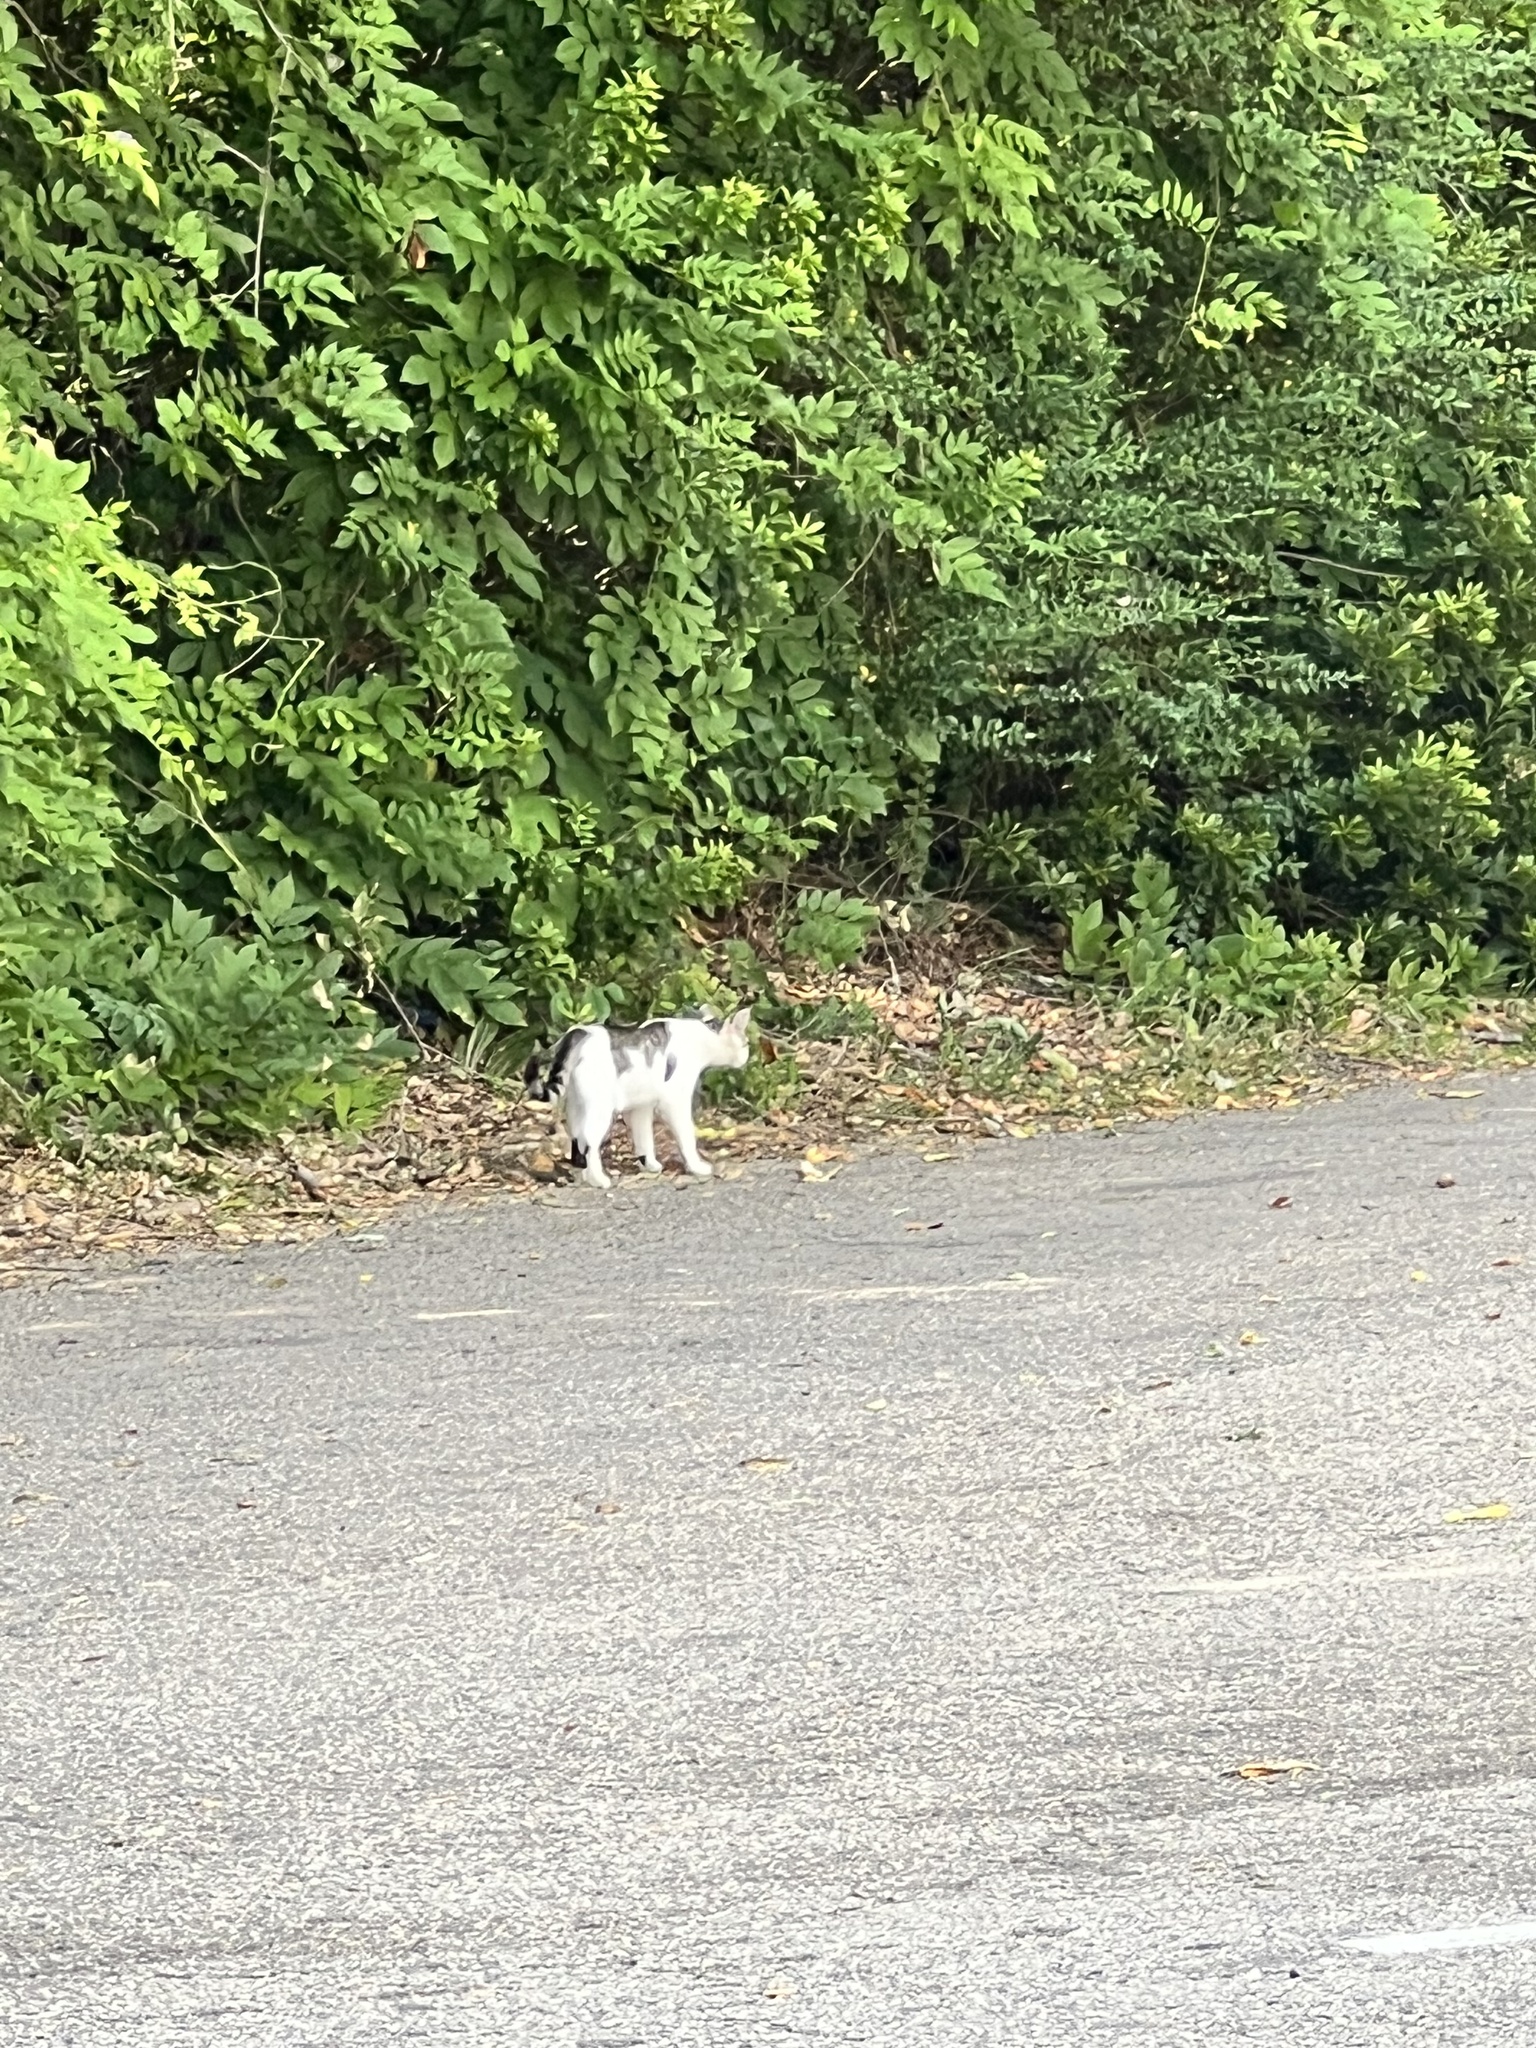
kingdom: Animalia
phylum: Chordata
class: Mammalia
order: Carnivora
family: Felidae
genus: Felis
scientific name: Felis catus
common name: Domestic cat
